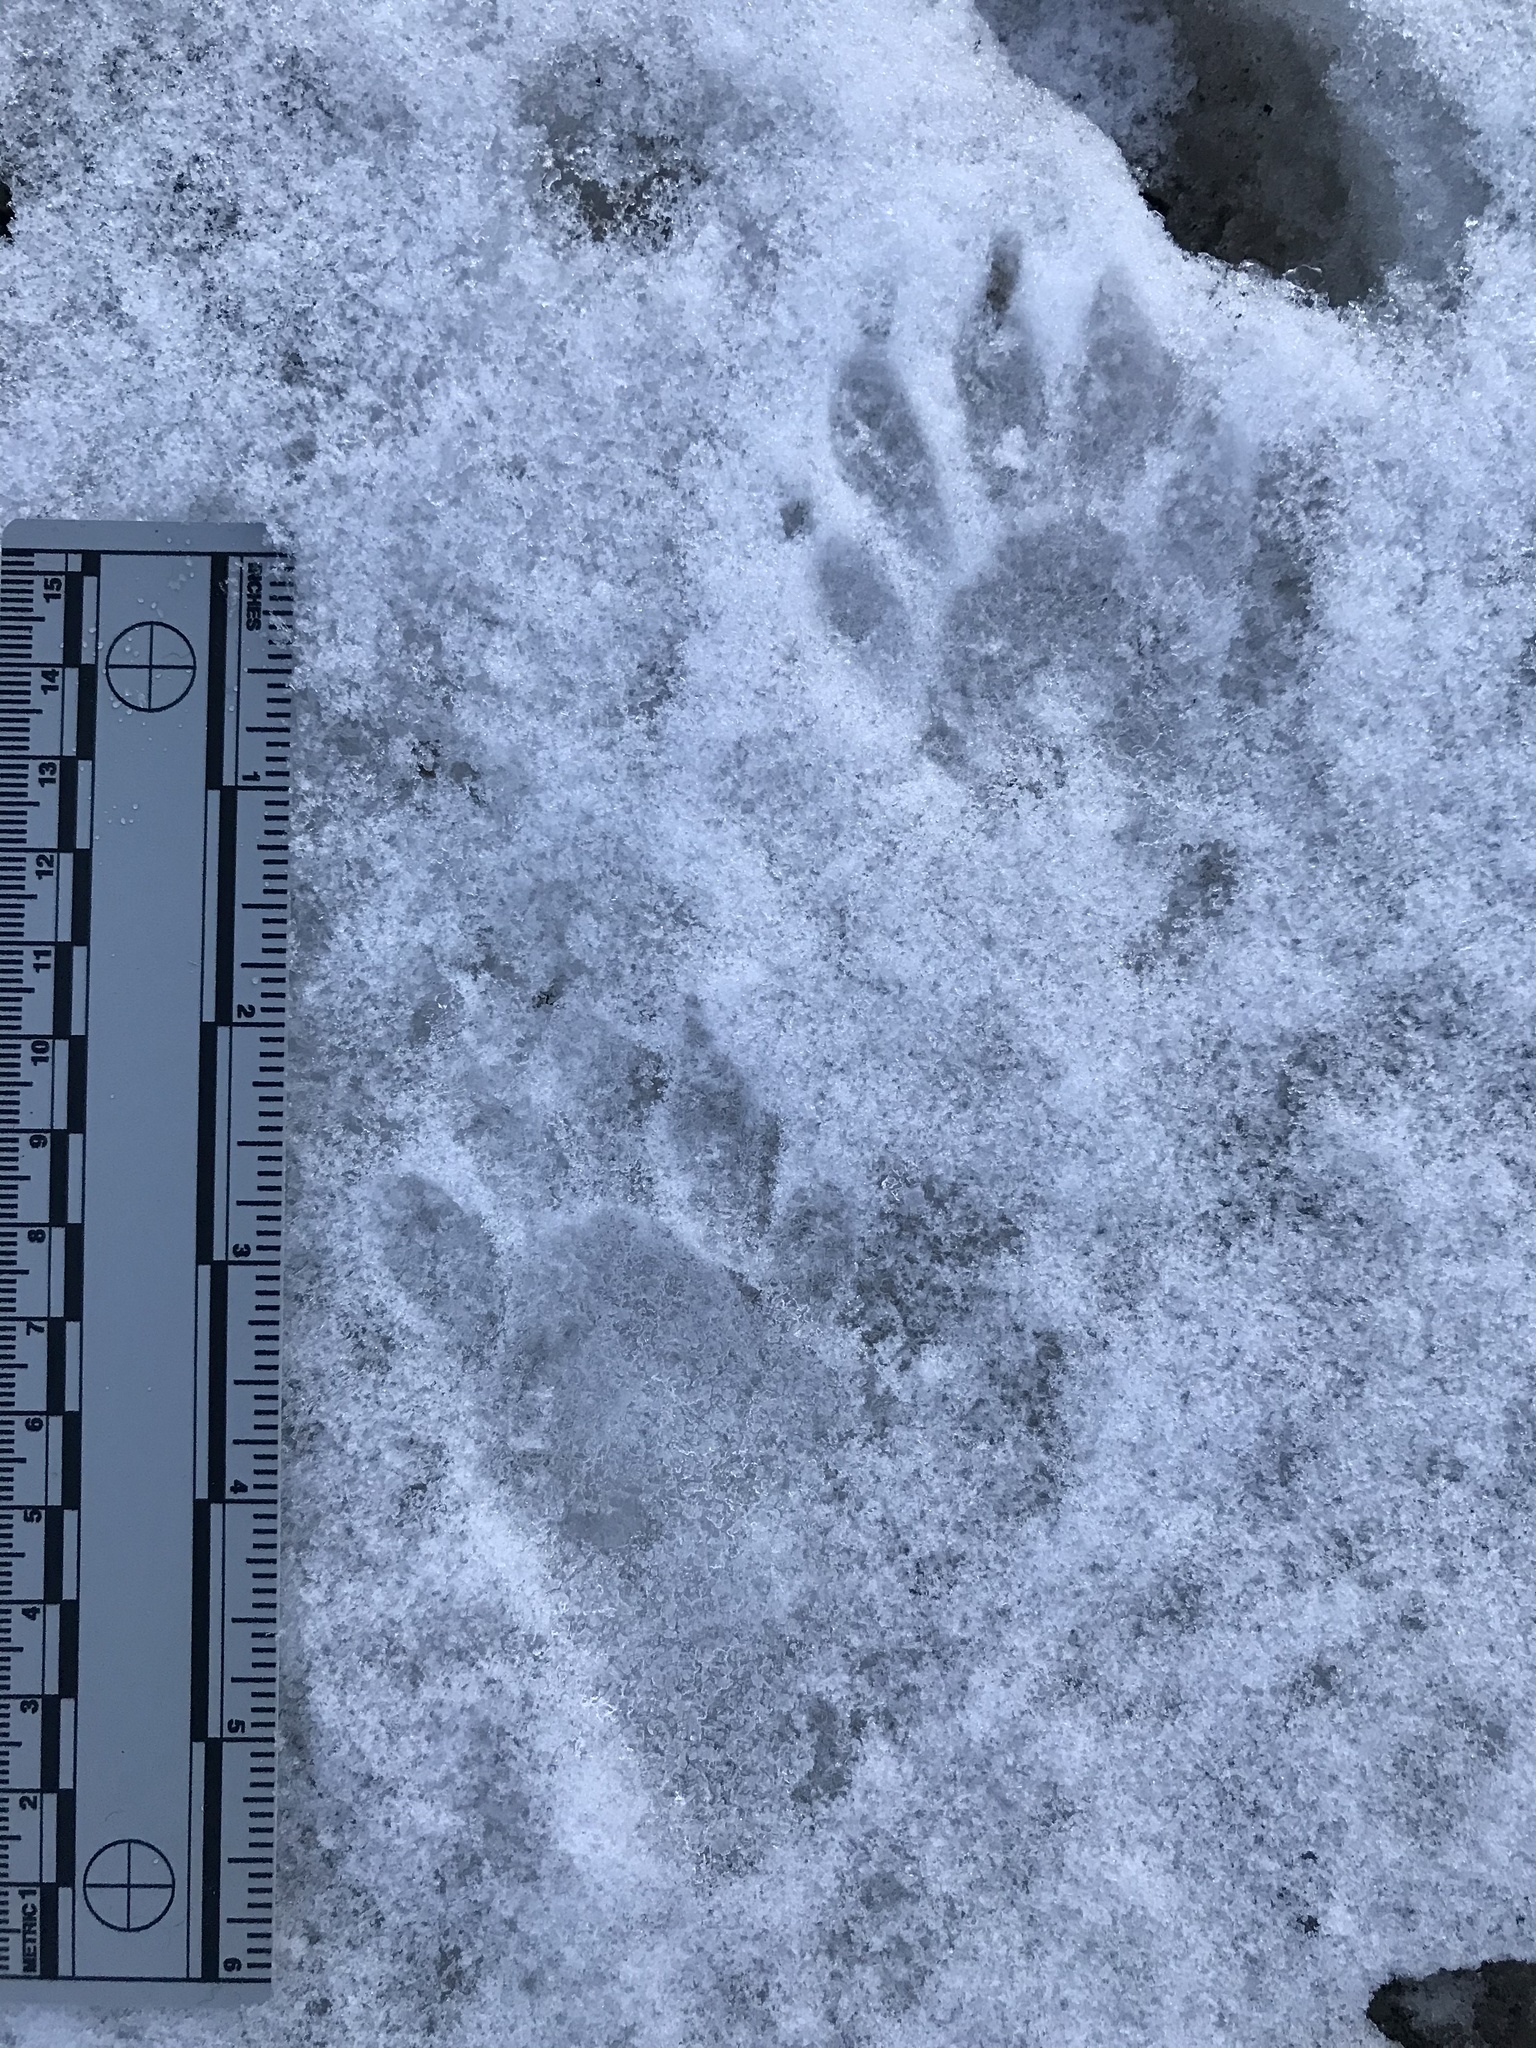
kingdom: Animalia
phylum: Chordata
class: Mammalia
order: Carnivora
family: Procyonidae
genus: Procyon
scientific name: Procyon lotor
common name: Raccoon
